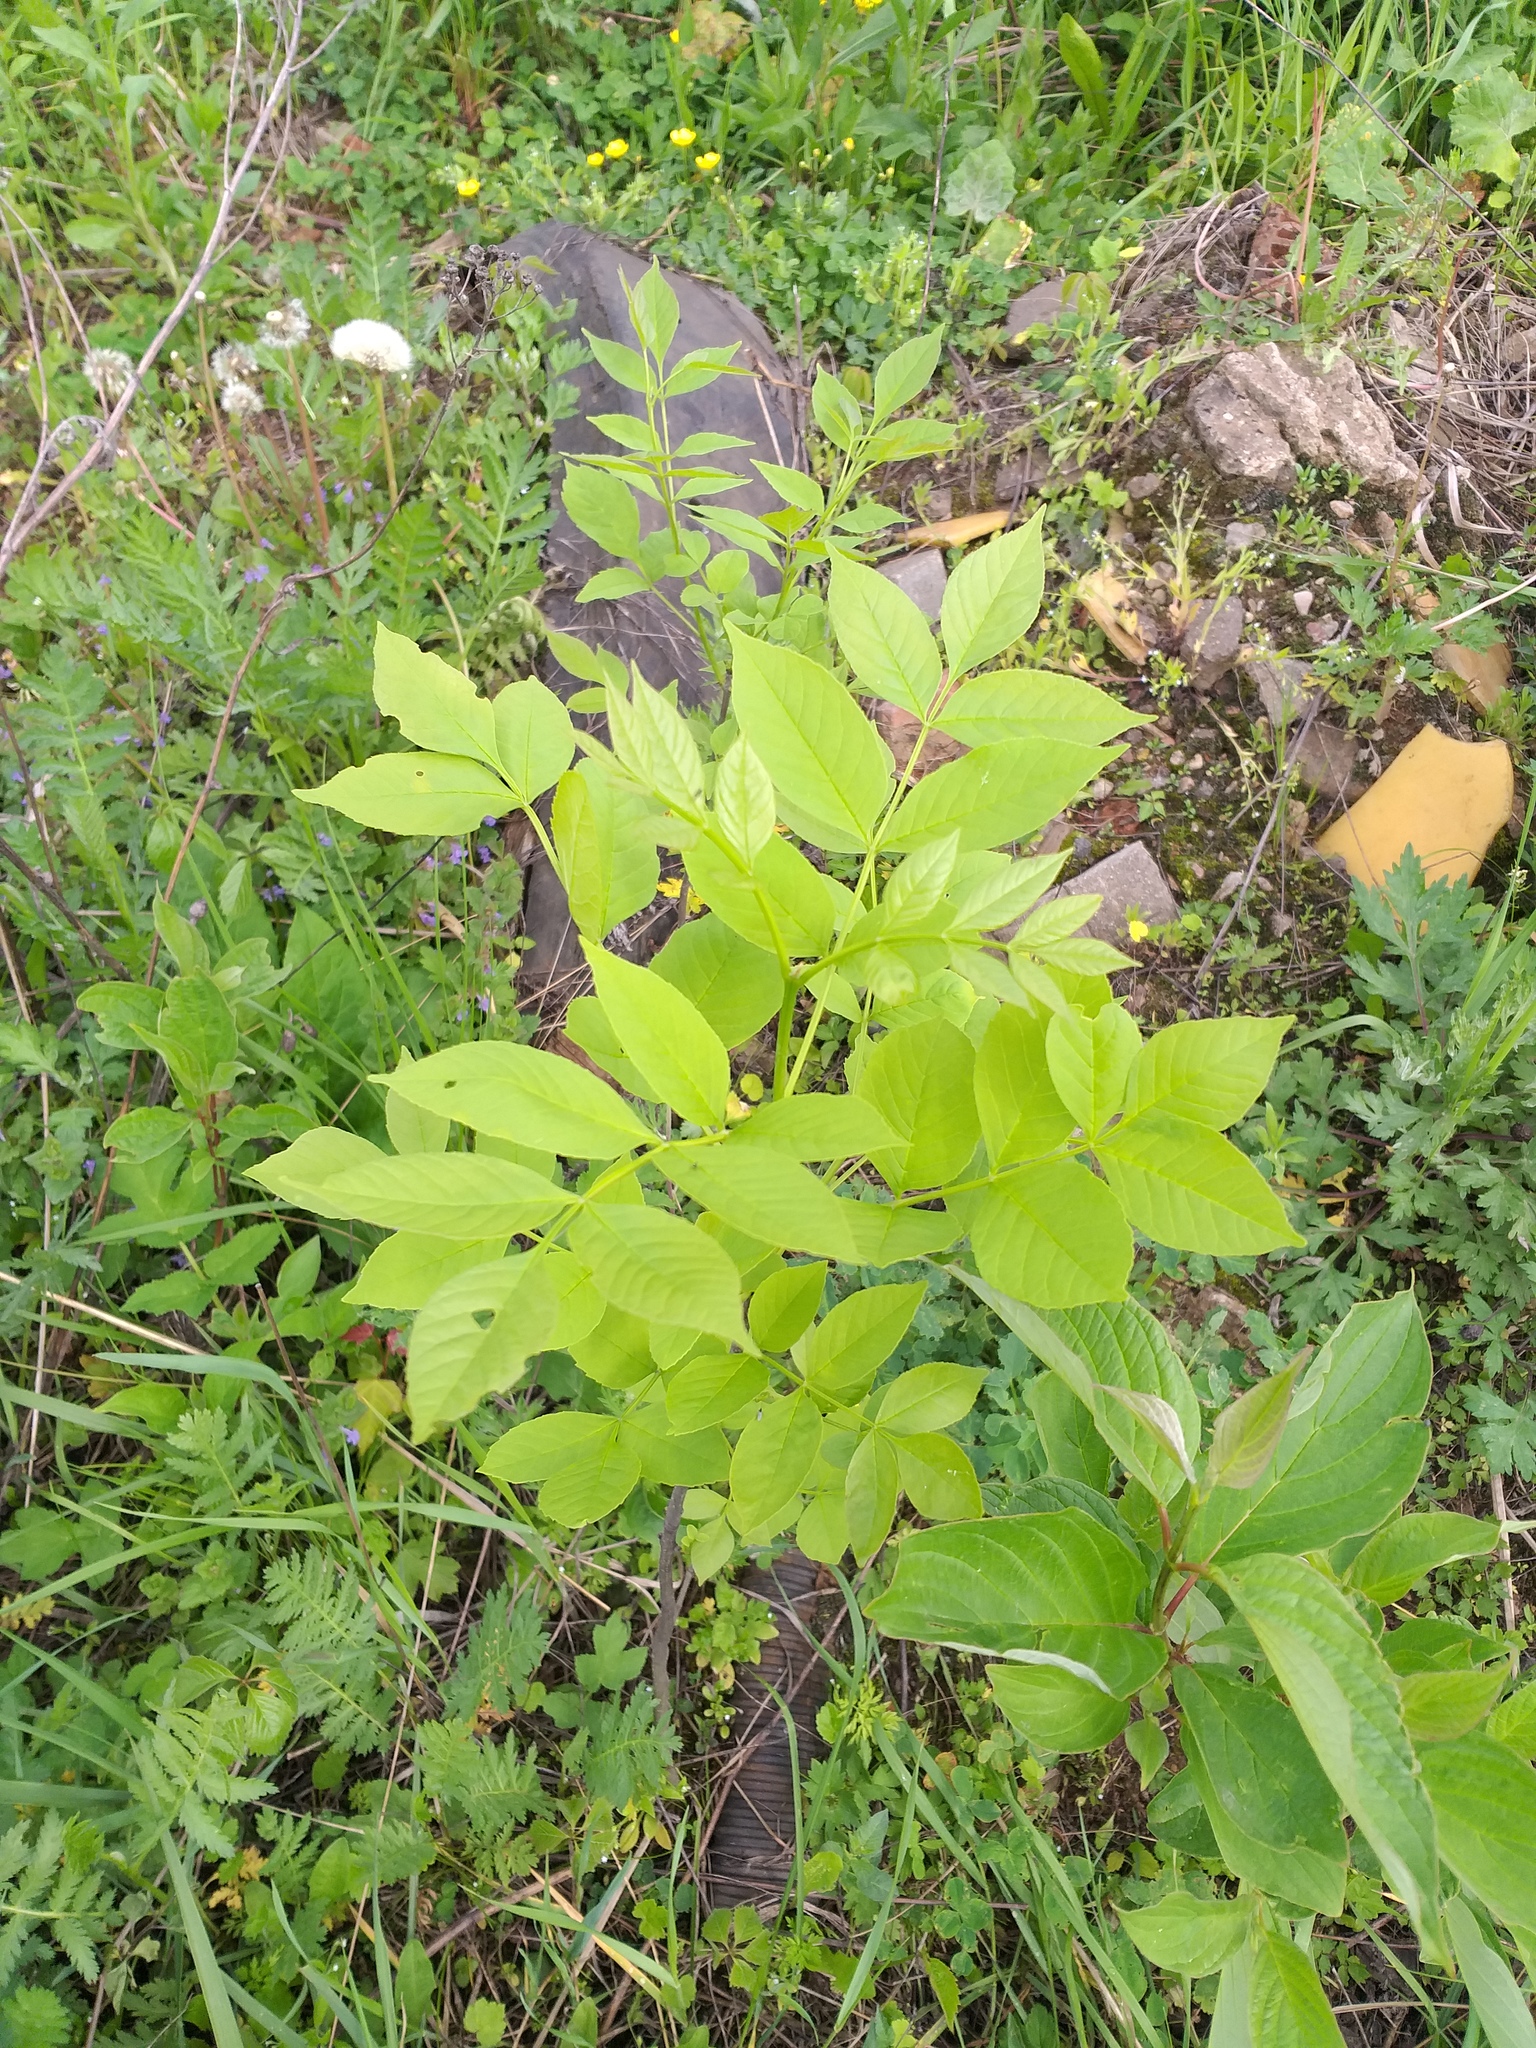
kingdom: Plantae
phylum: Tracheophyta
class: Magnoliopsida
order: Lamiales
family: Oleaceae
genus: Fraxinus
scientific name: Fraxinus pennsylvanica
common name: Green ash
